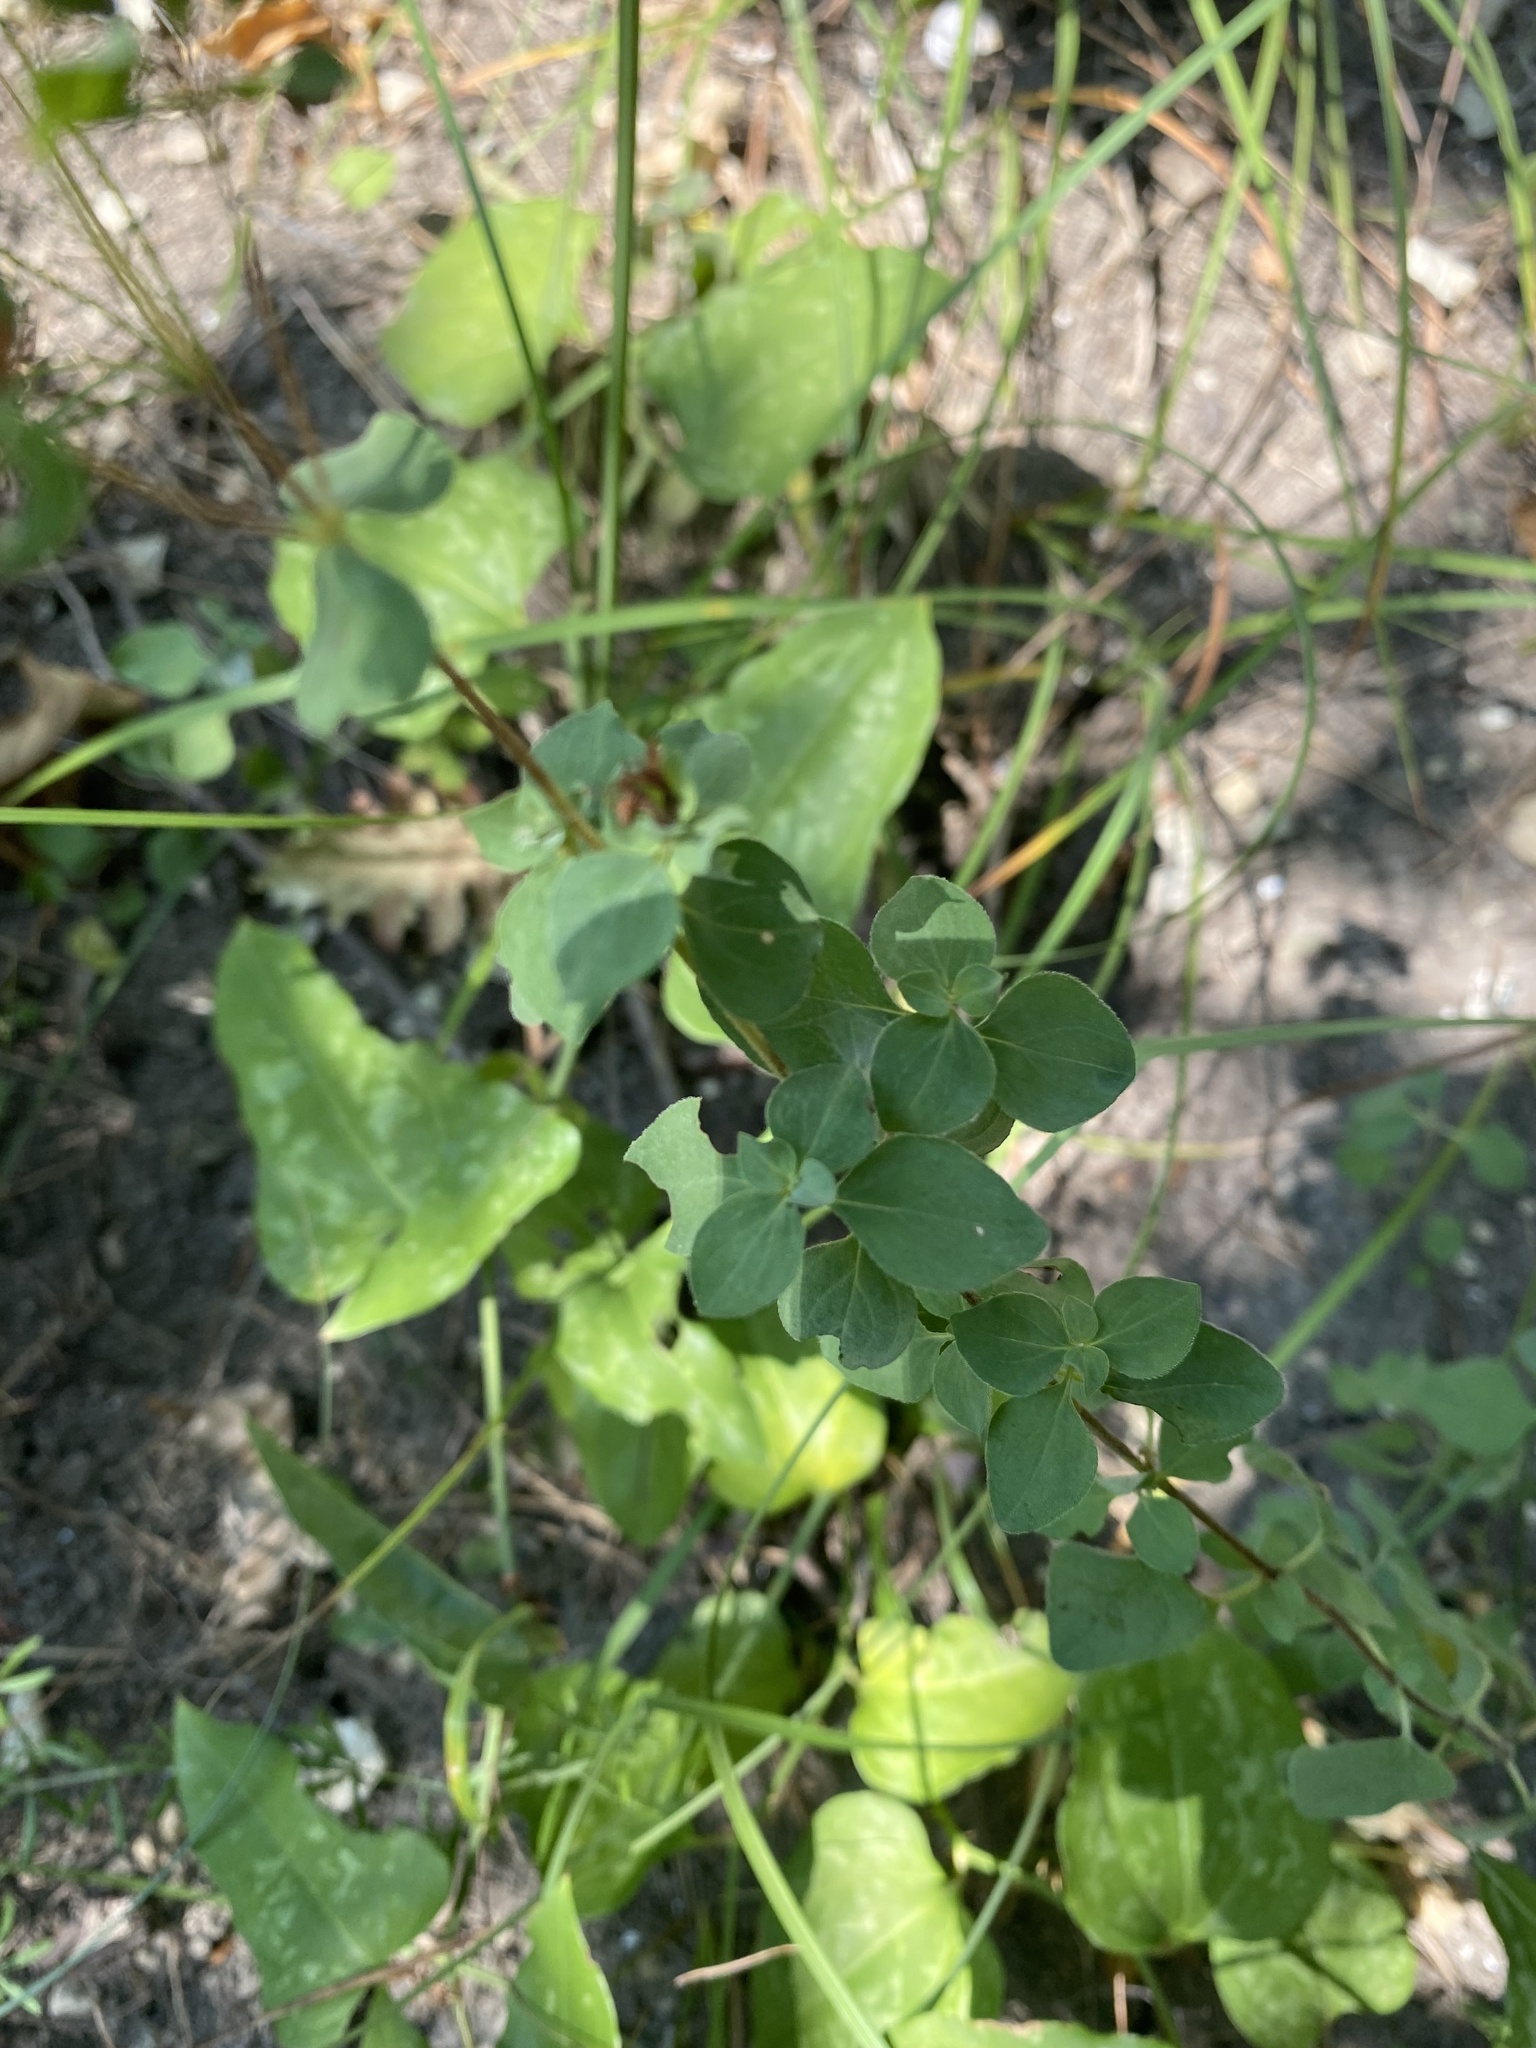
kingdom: Plantae
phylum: Tracheophyta
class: Magnoliopsida
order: Lamiales
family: Lamiaceae
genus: Origanum
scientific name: Origanum vulgare
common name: Wild marjoram
